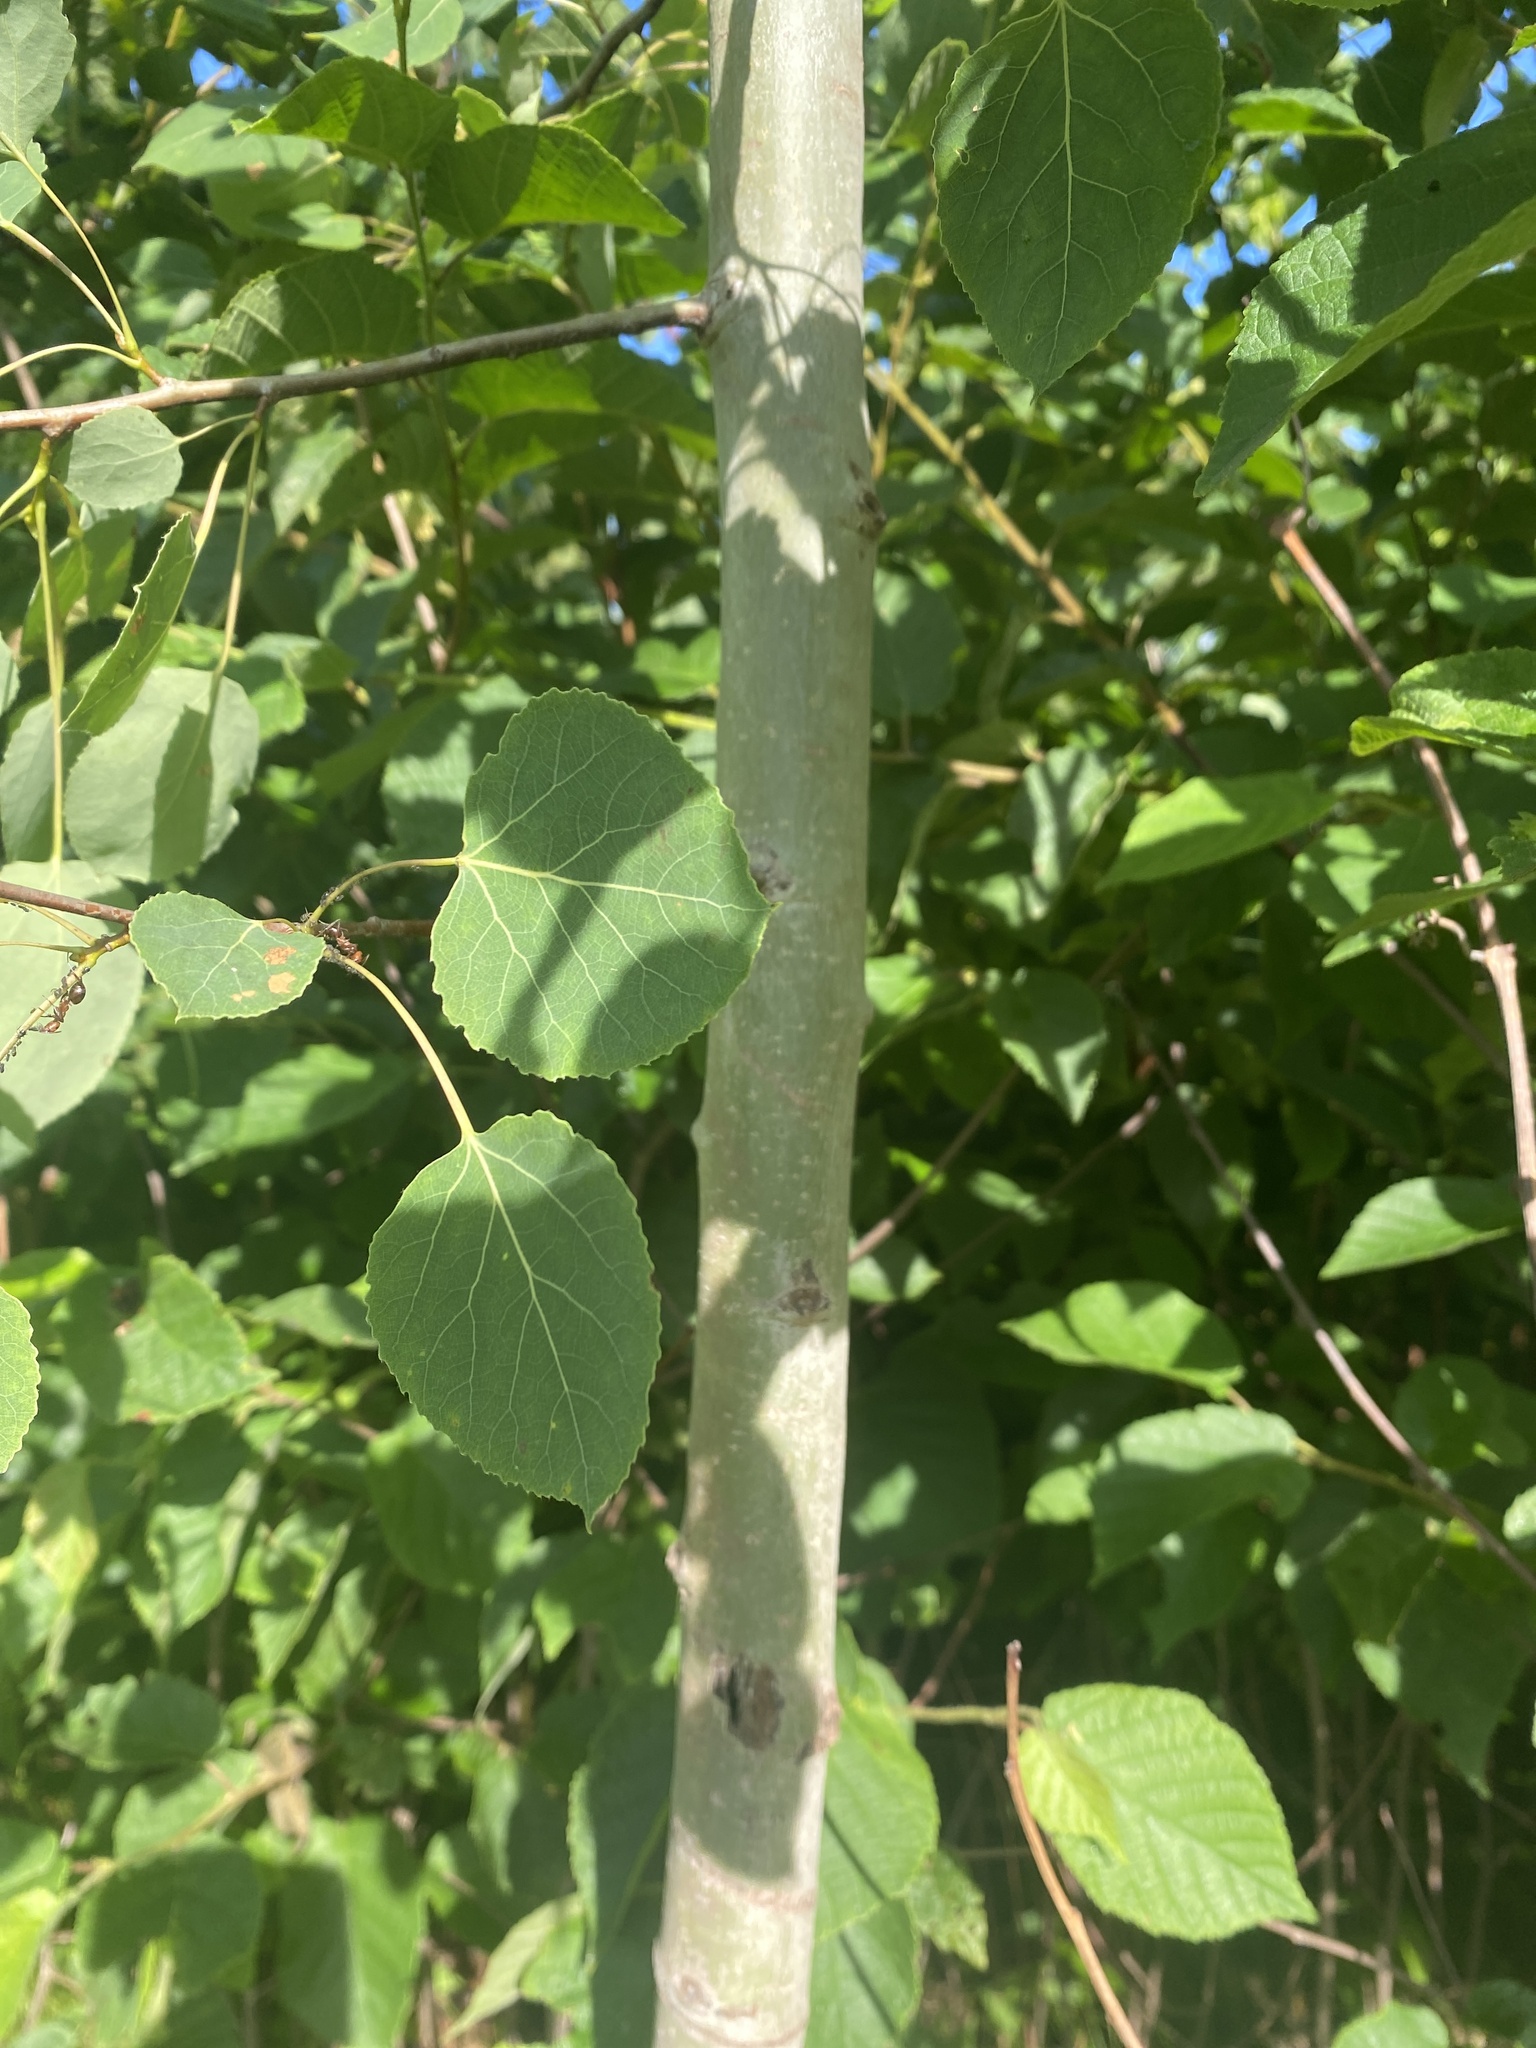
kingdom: Plantae
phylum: Tracheophyta
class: Magnoliopsida
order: Malpighiales
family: Salicaceae
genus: Populus
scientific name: Populus tremuloides
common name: Quaking aspen
